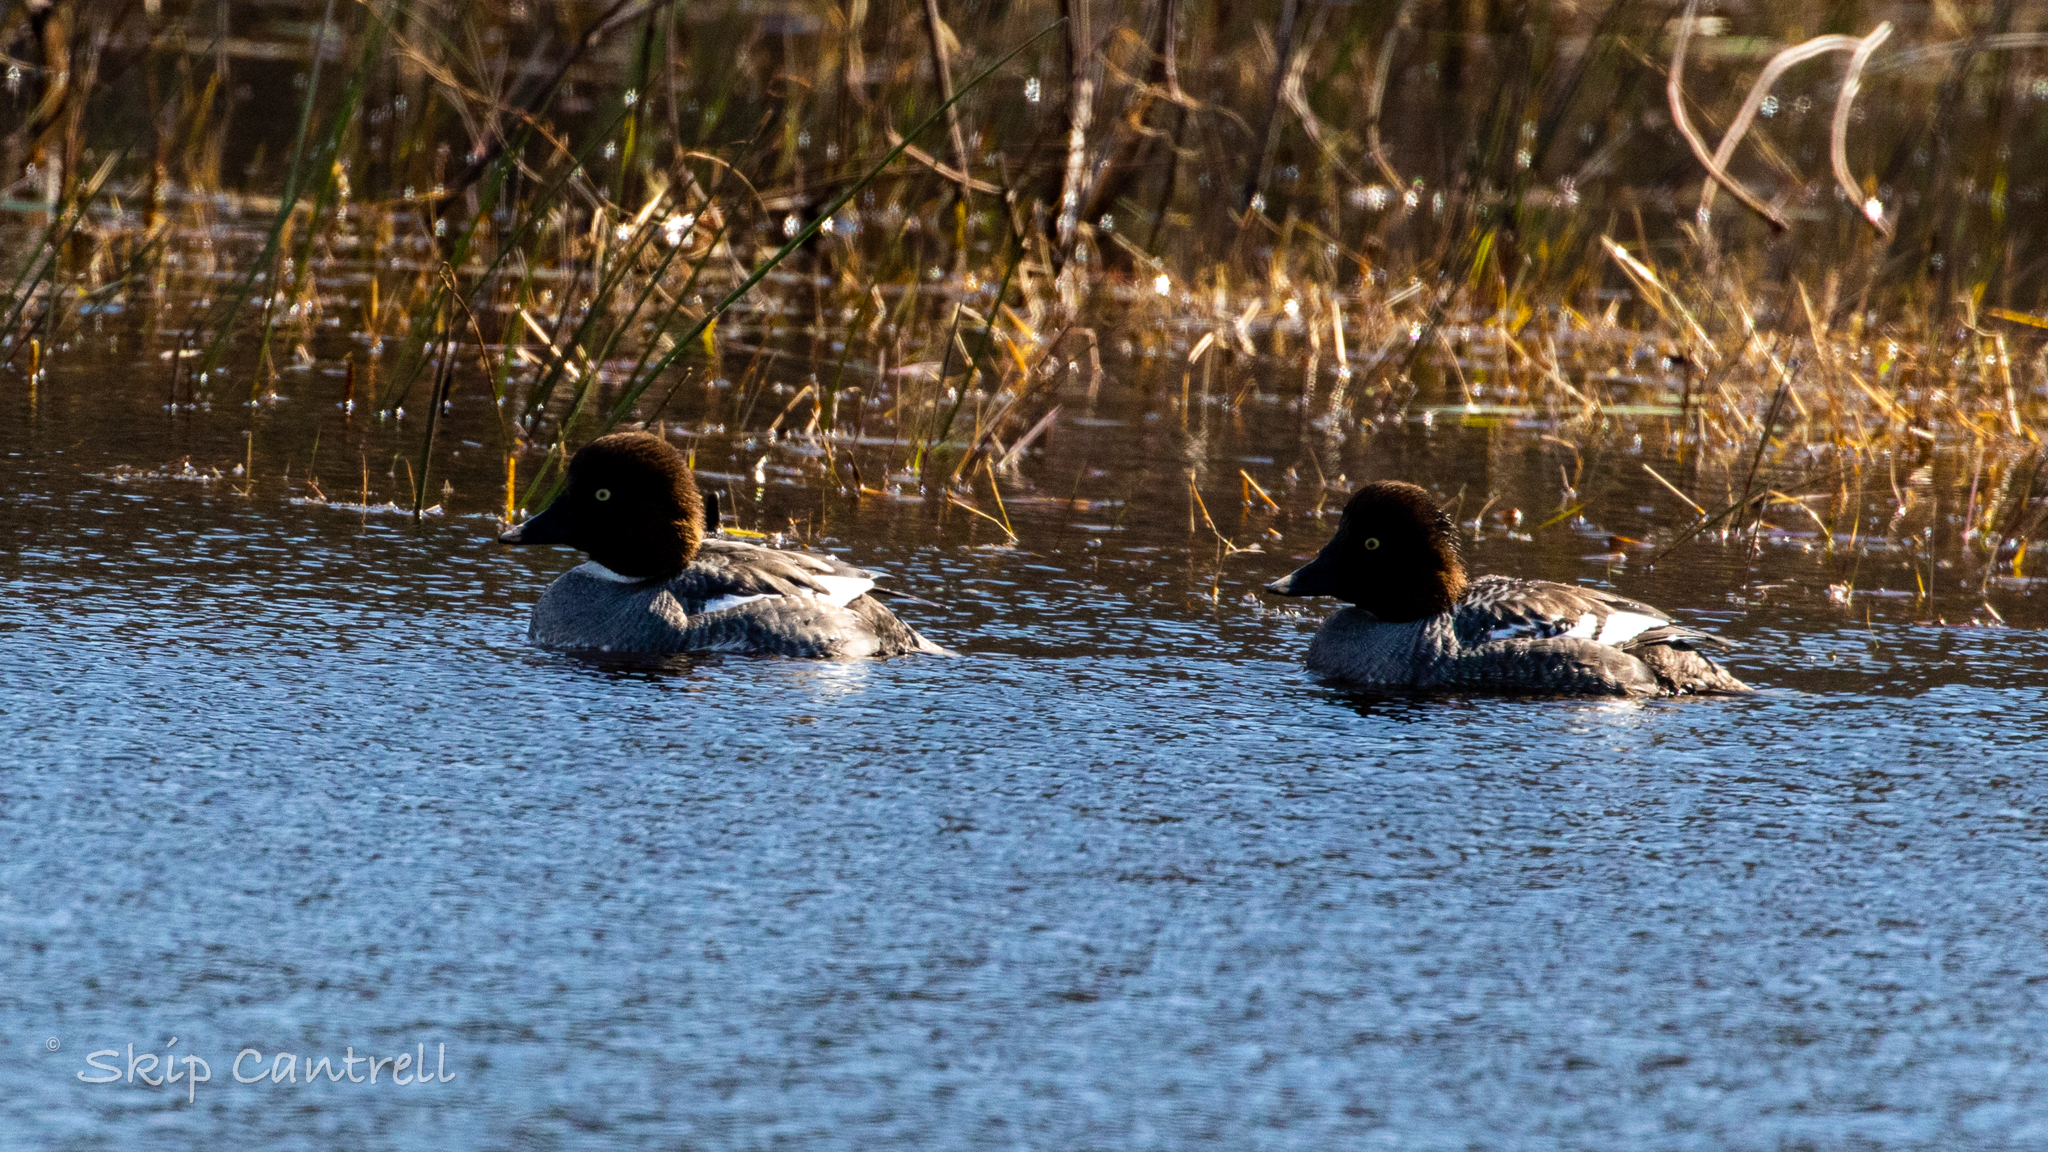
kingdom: Animalia
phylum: Chordata
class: Aves
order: Anseriformes
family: Anatidae
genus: Bucephala
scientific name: Bucephala clangula
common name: Common goldeneye
